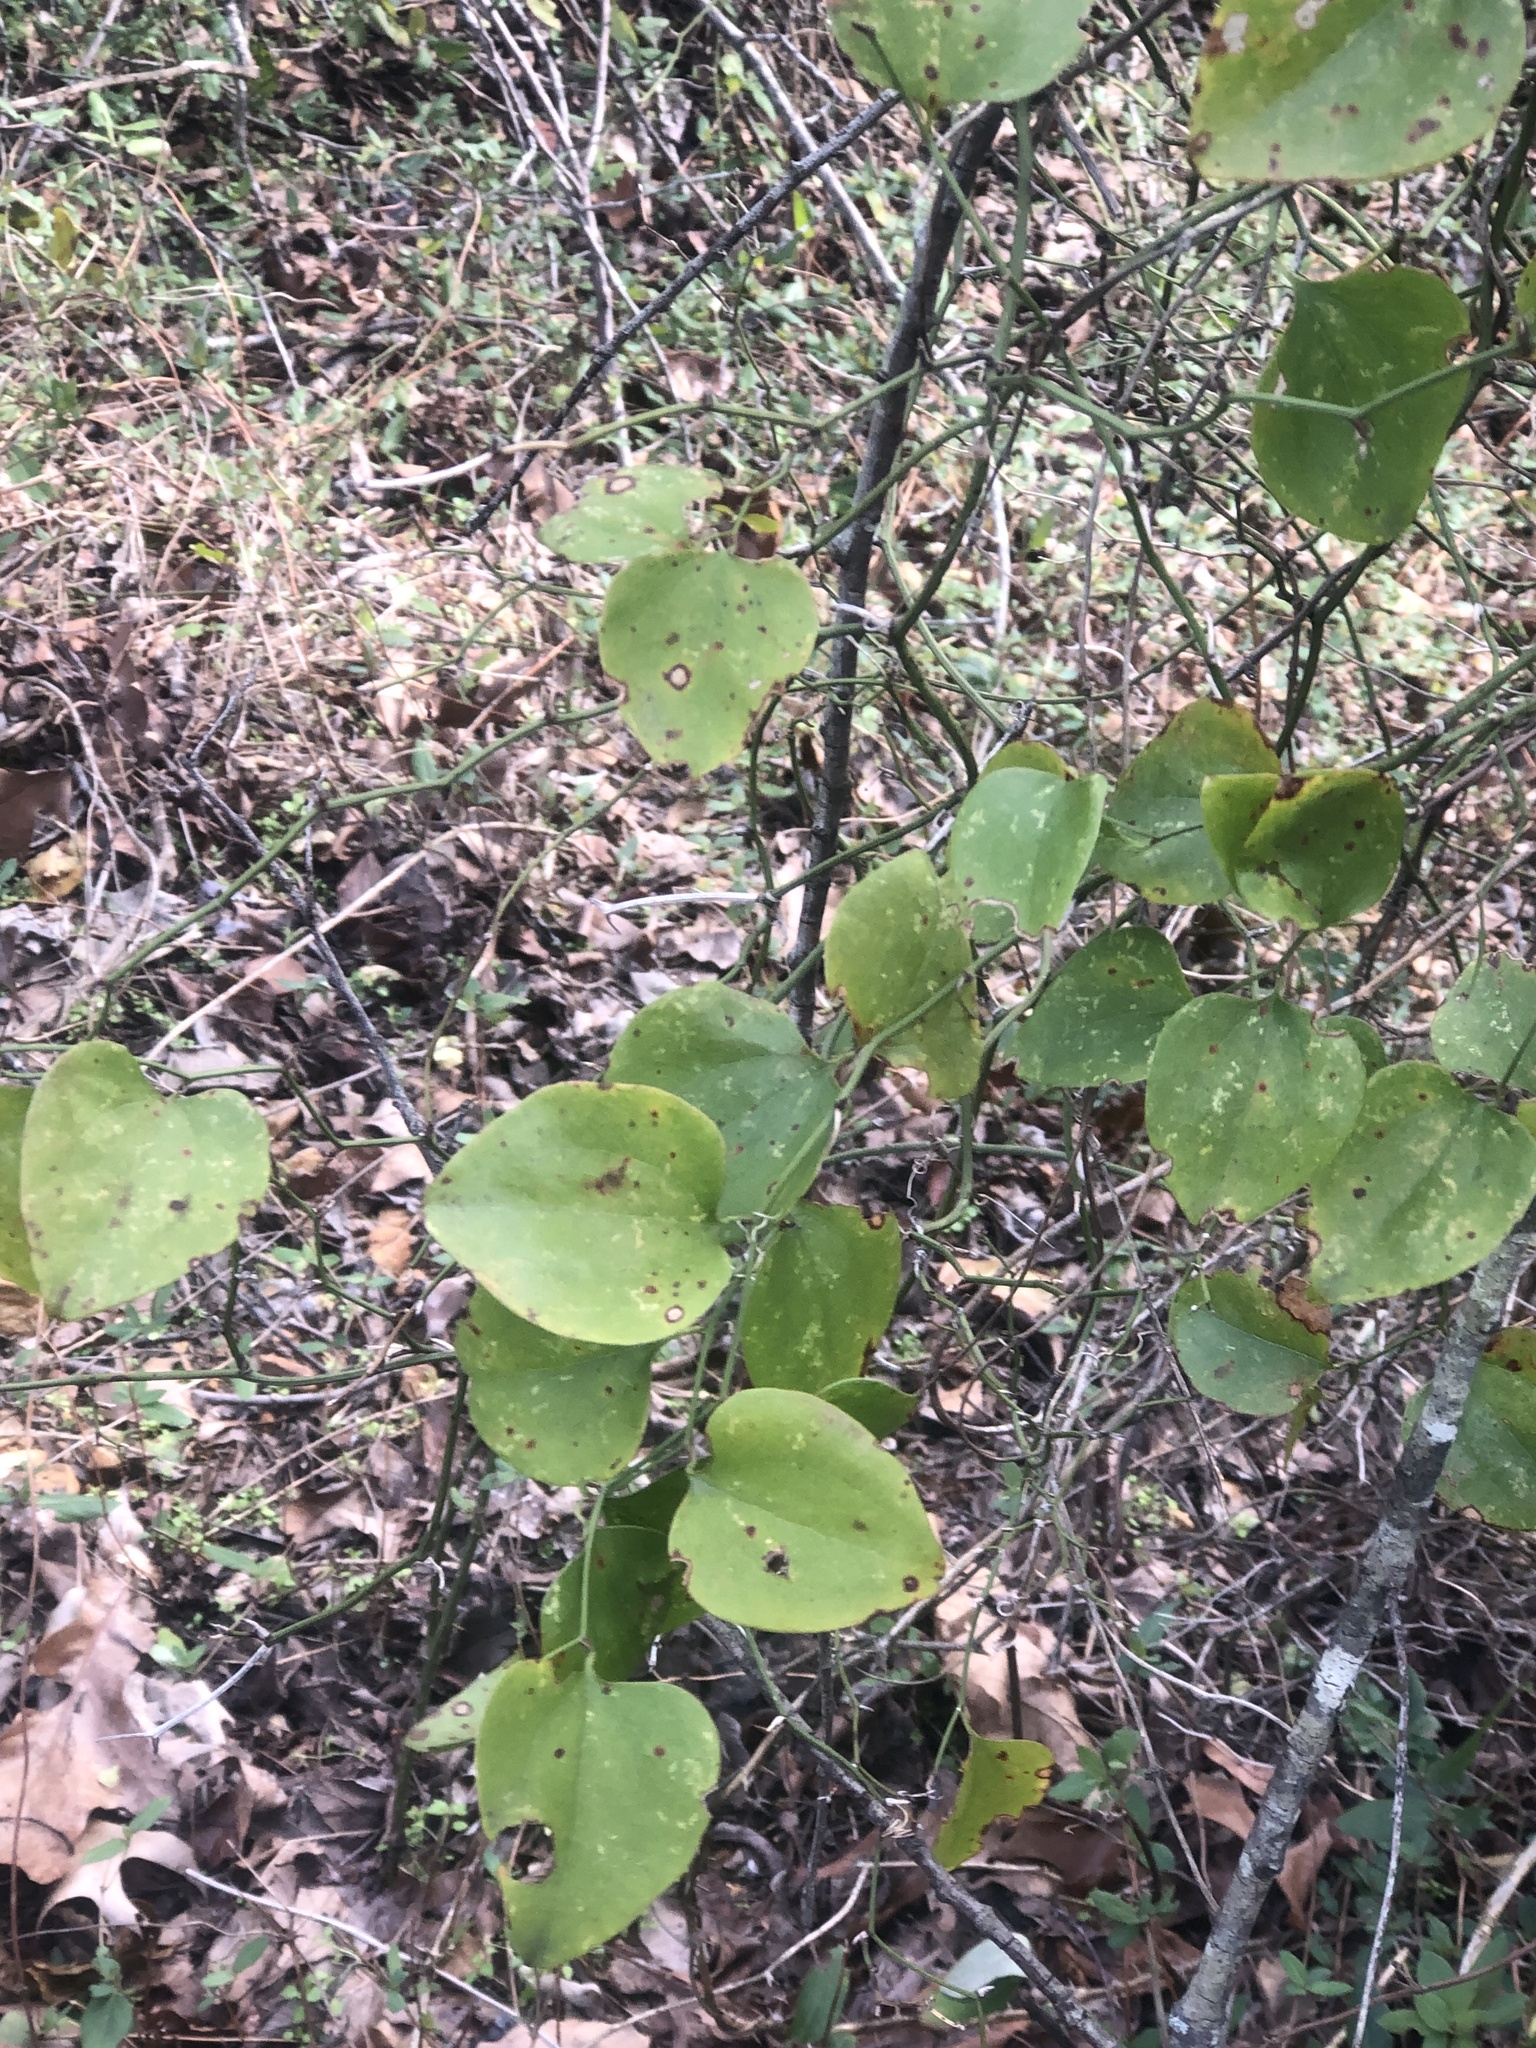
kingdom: Plantae
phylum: Tracheophyta
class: Liliopsida
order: Liliales
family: Smilacaceae
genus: Smilax
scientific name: Smilax rotundifolia
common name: Bullbriar
